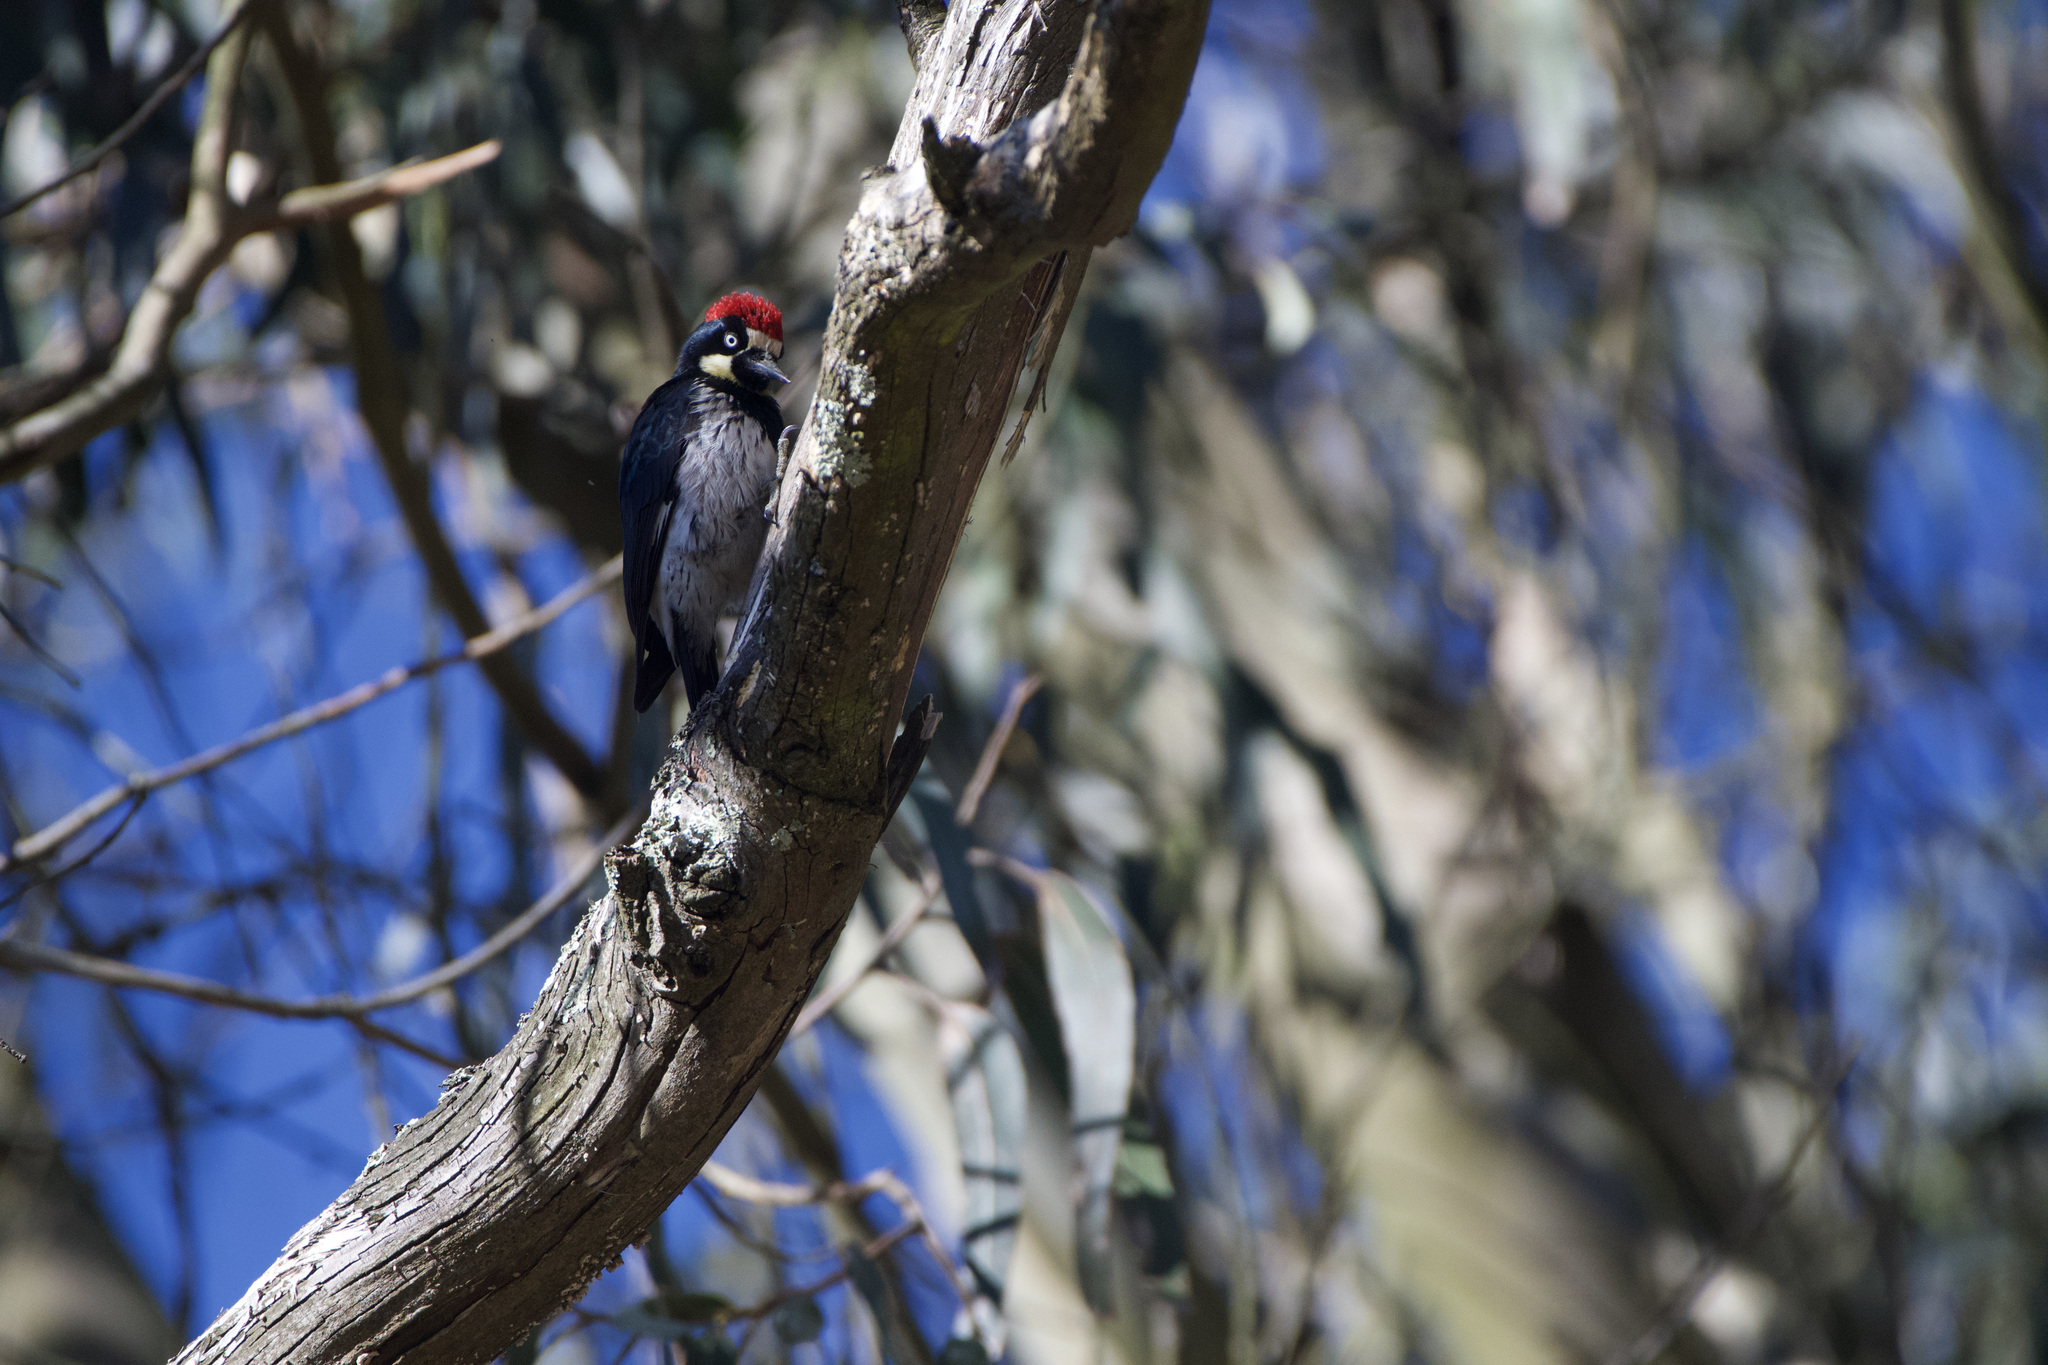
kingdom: Animalia
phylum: Chordata
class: Aves
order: Piciformes
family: Picidae
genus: Melanerpes
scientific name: Melanerpes formicivorus
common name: Acorn woodpecker
